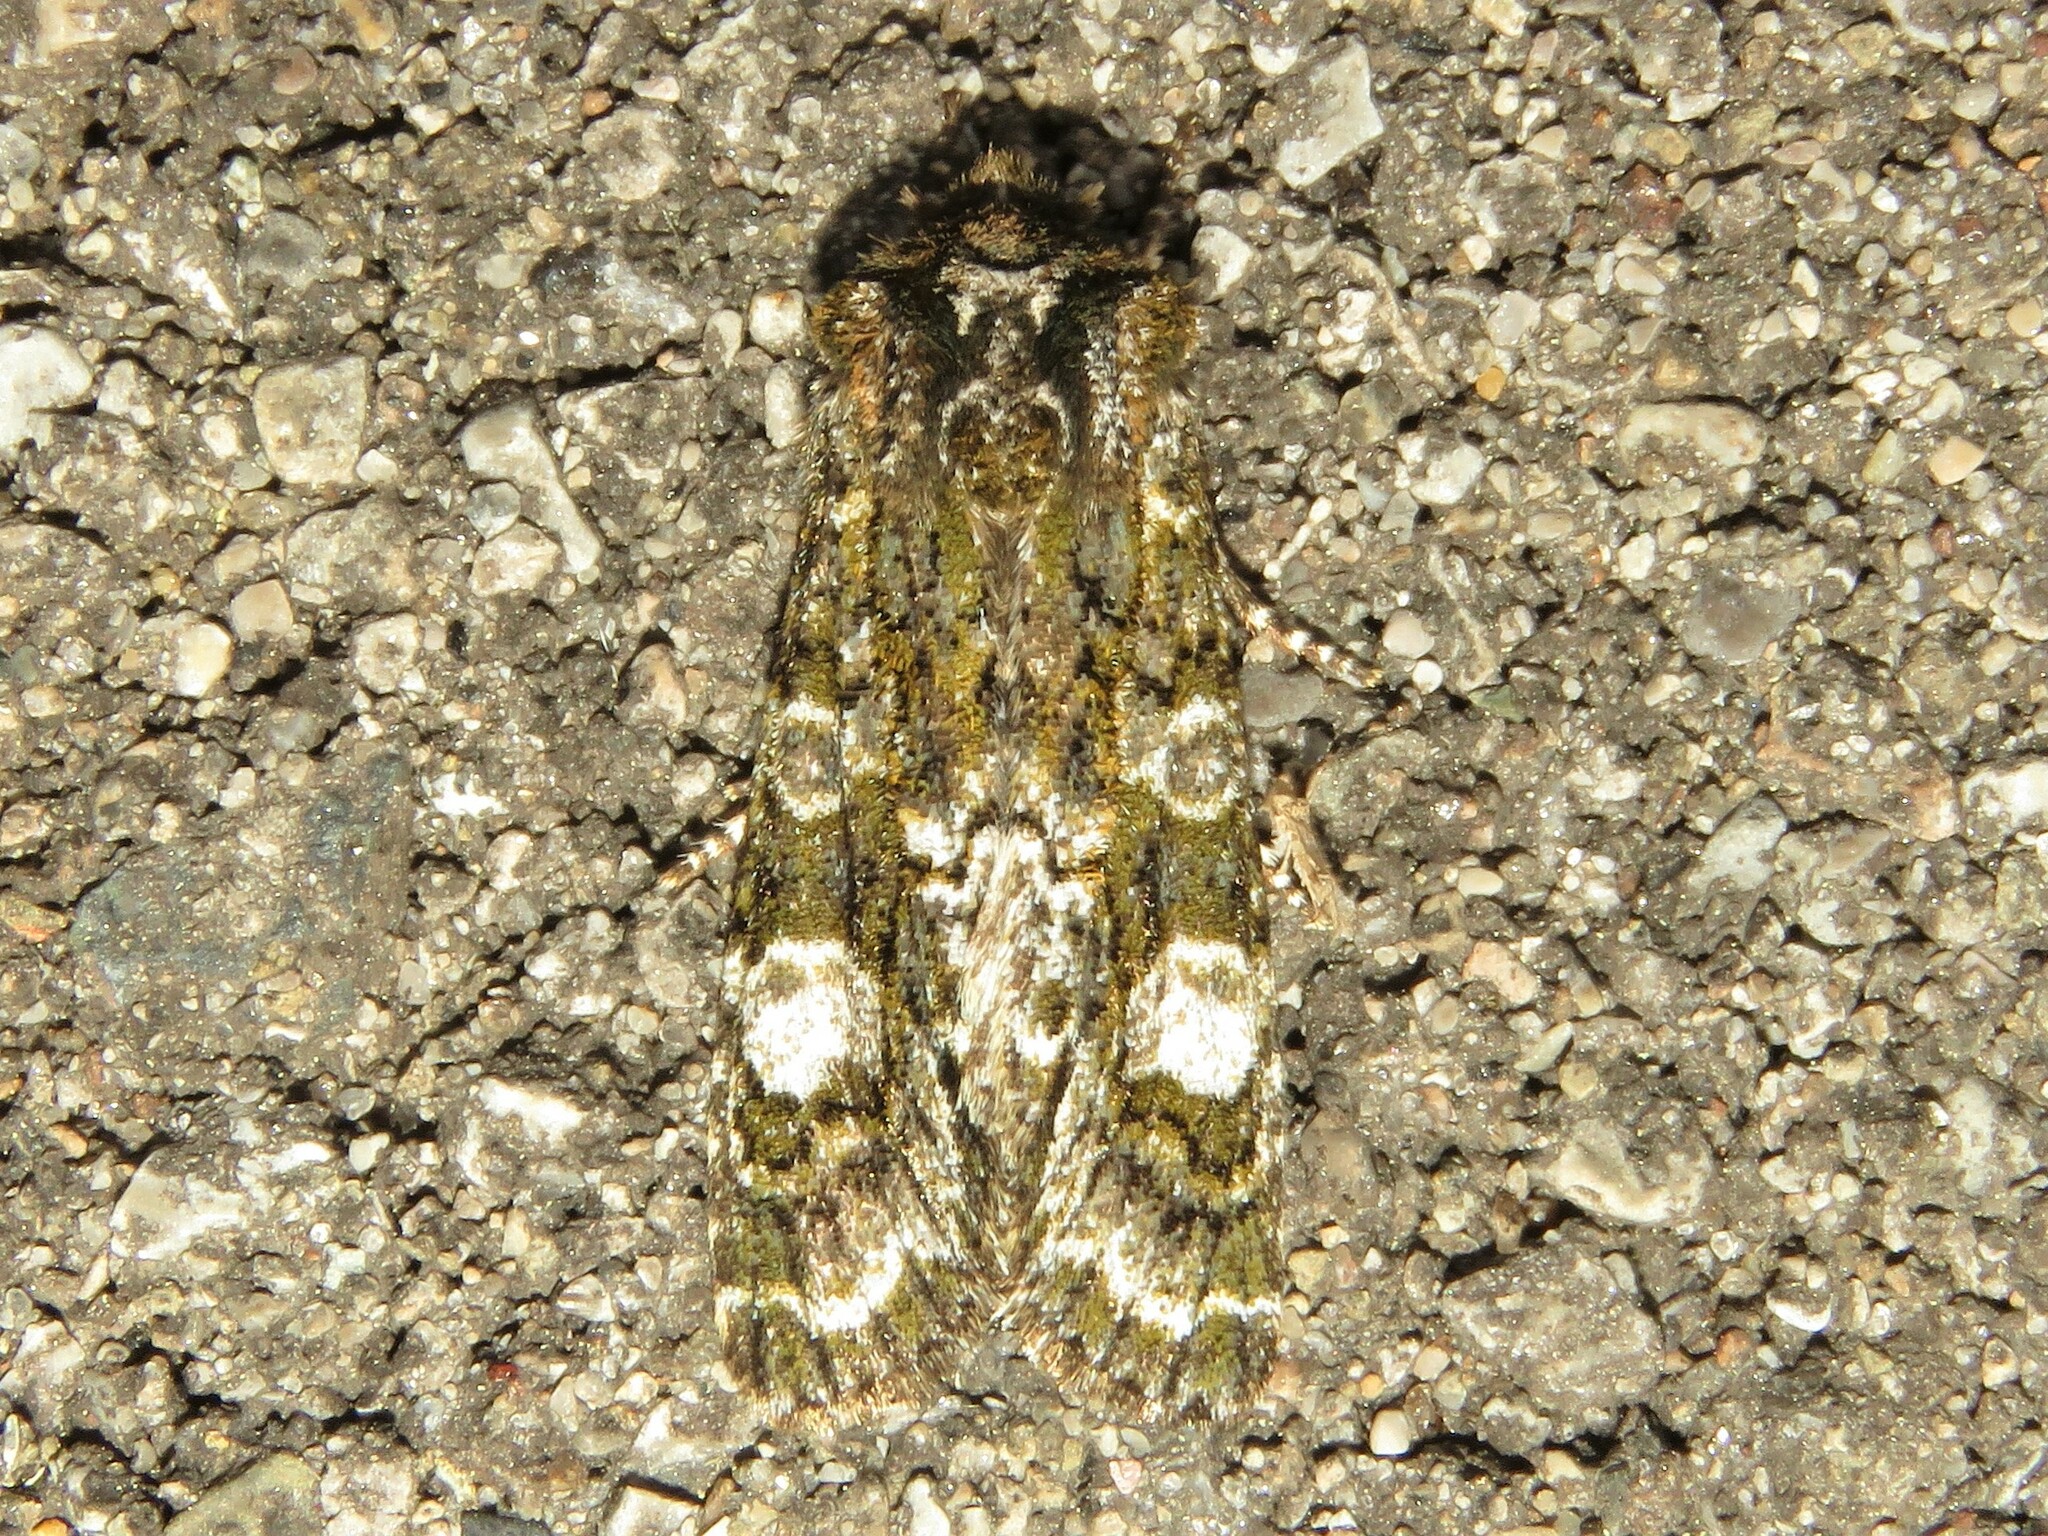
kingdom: Animalia
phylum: Arthropoda
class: Insecta
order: Lepidoptera
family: Noctuidae
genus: Psaphida
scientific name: Psaphida grotei
